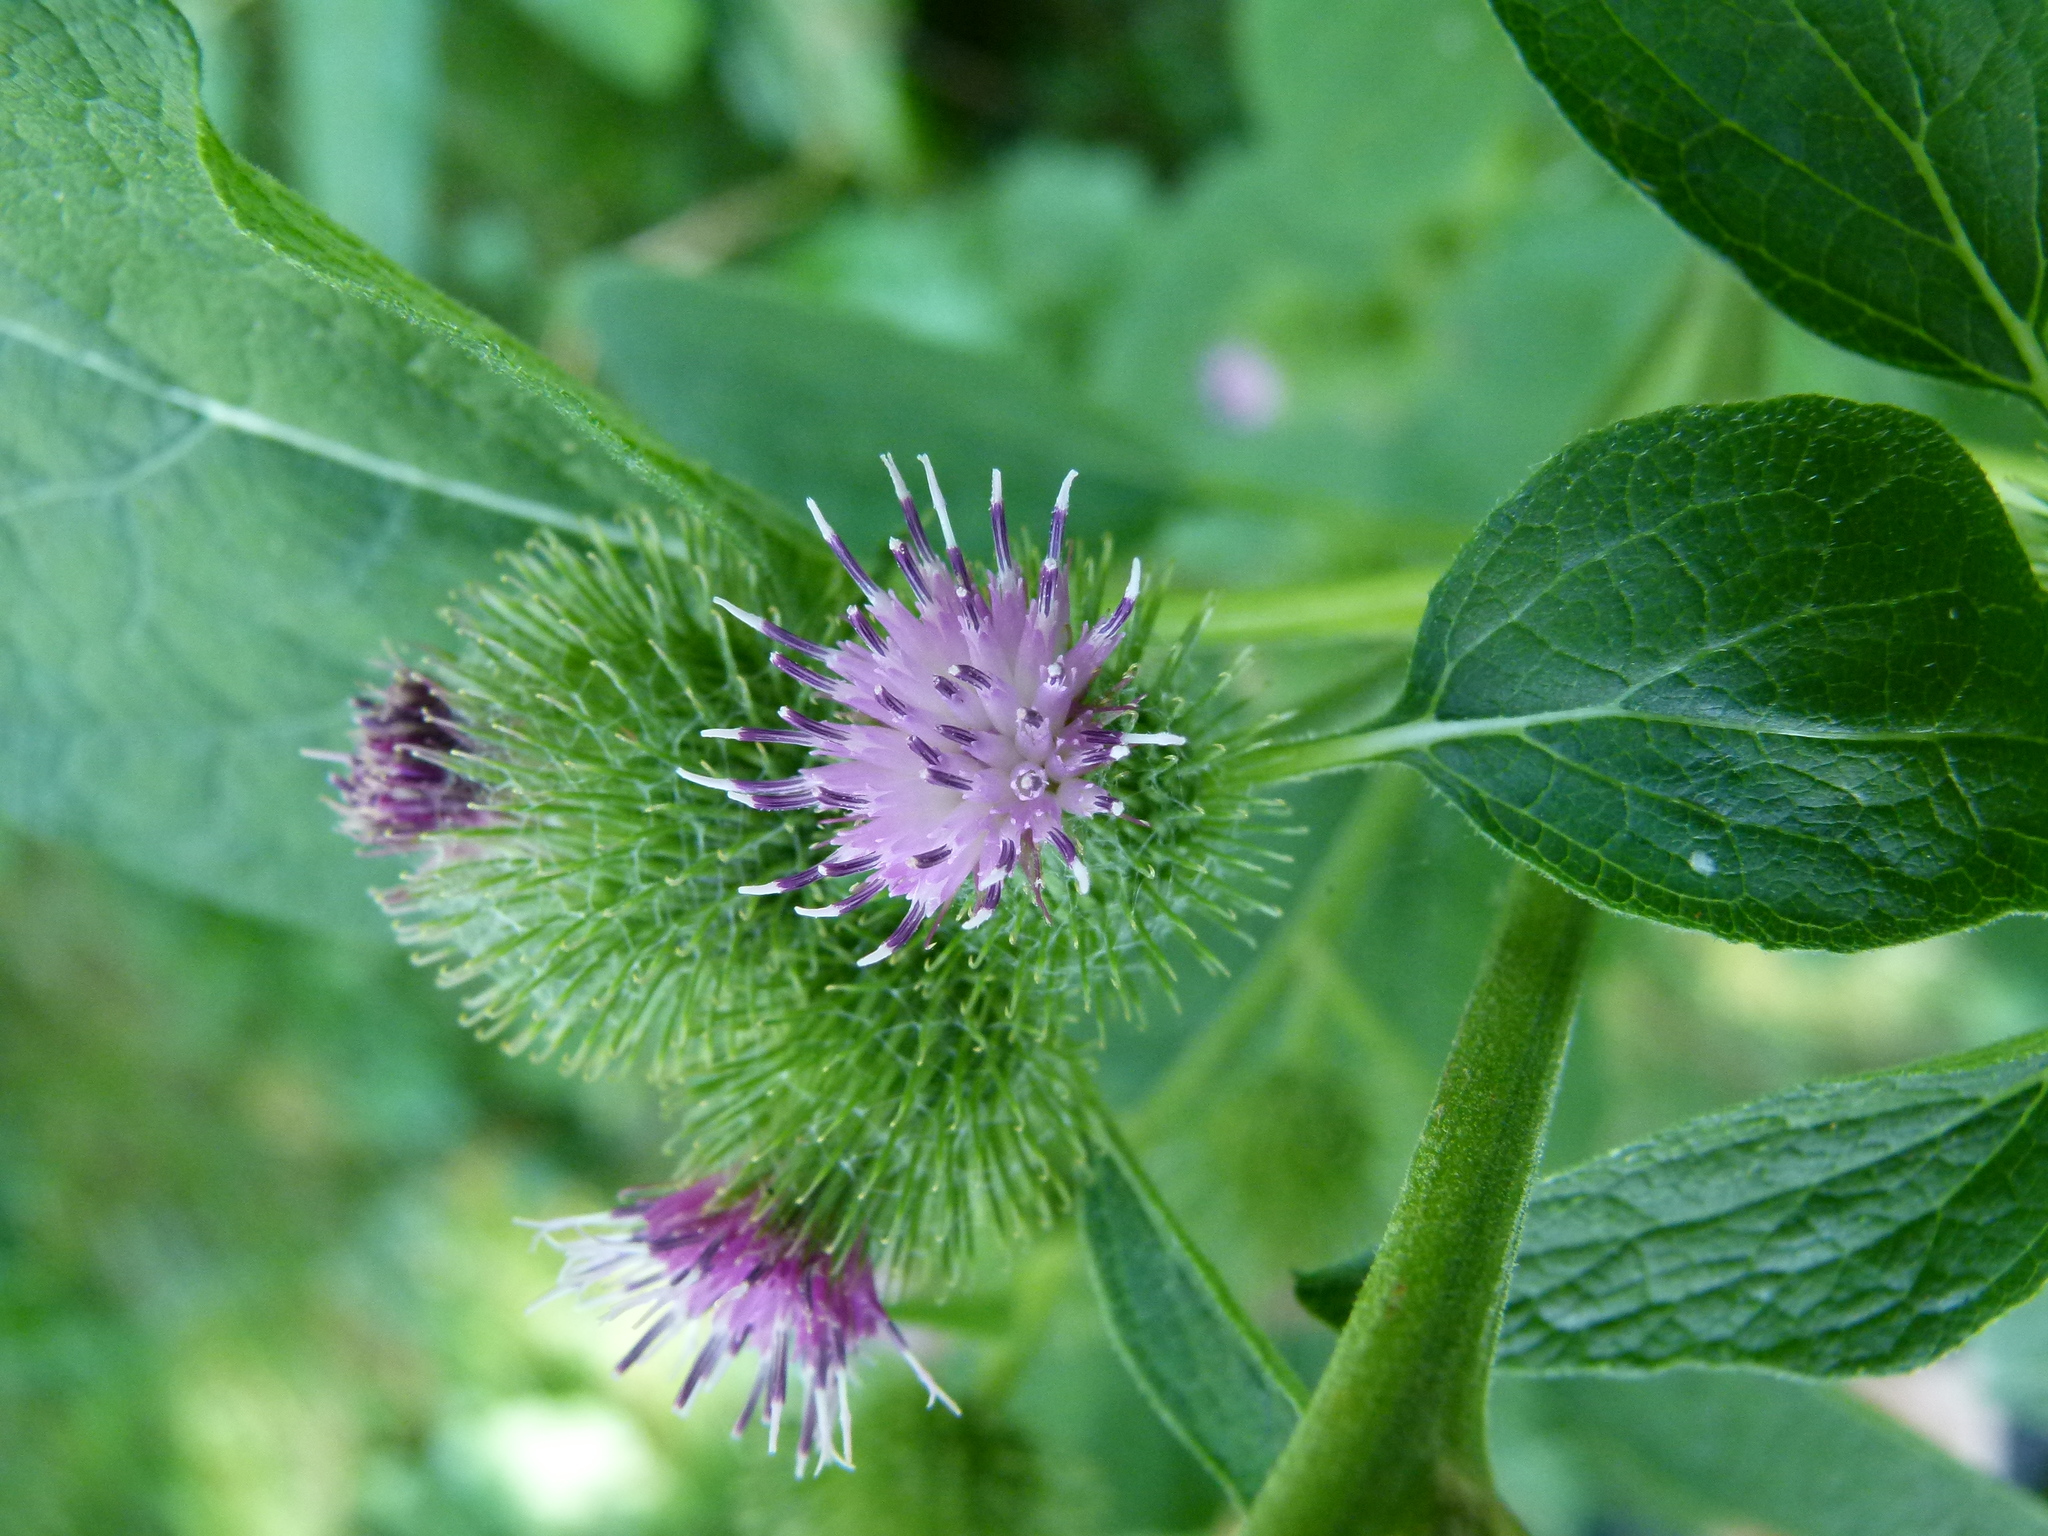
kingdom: Plantae
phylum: Tracheophyta
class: Magnoliopsida
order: Asterales
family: Asteraceae
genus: Arctium
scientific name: Arctium minus
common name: Lesser burdock
